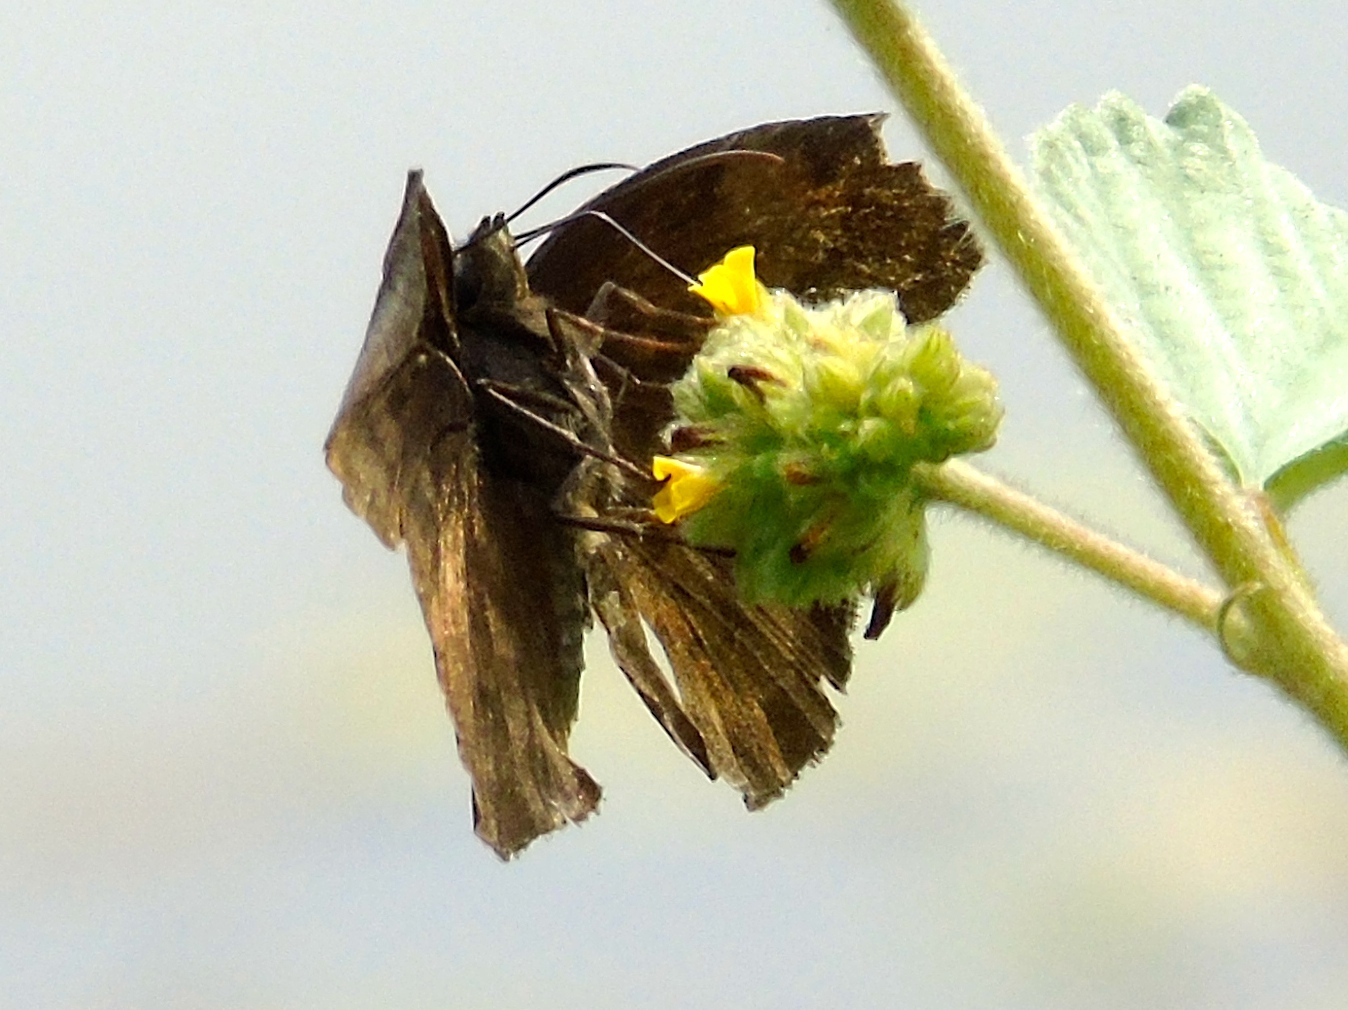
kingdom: Animalia
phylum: Arthropoda
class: Insecta
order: Lepidoptera
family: Hesperiidae
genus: Pyrginae
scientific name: Pyrginae
